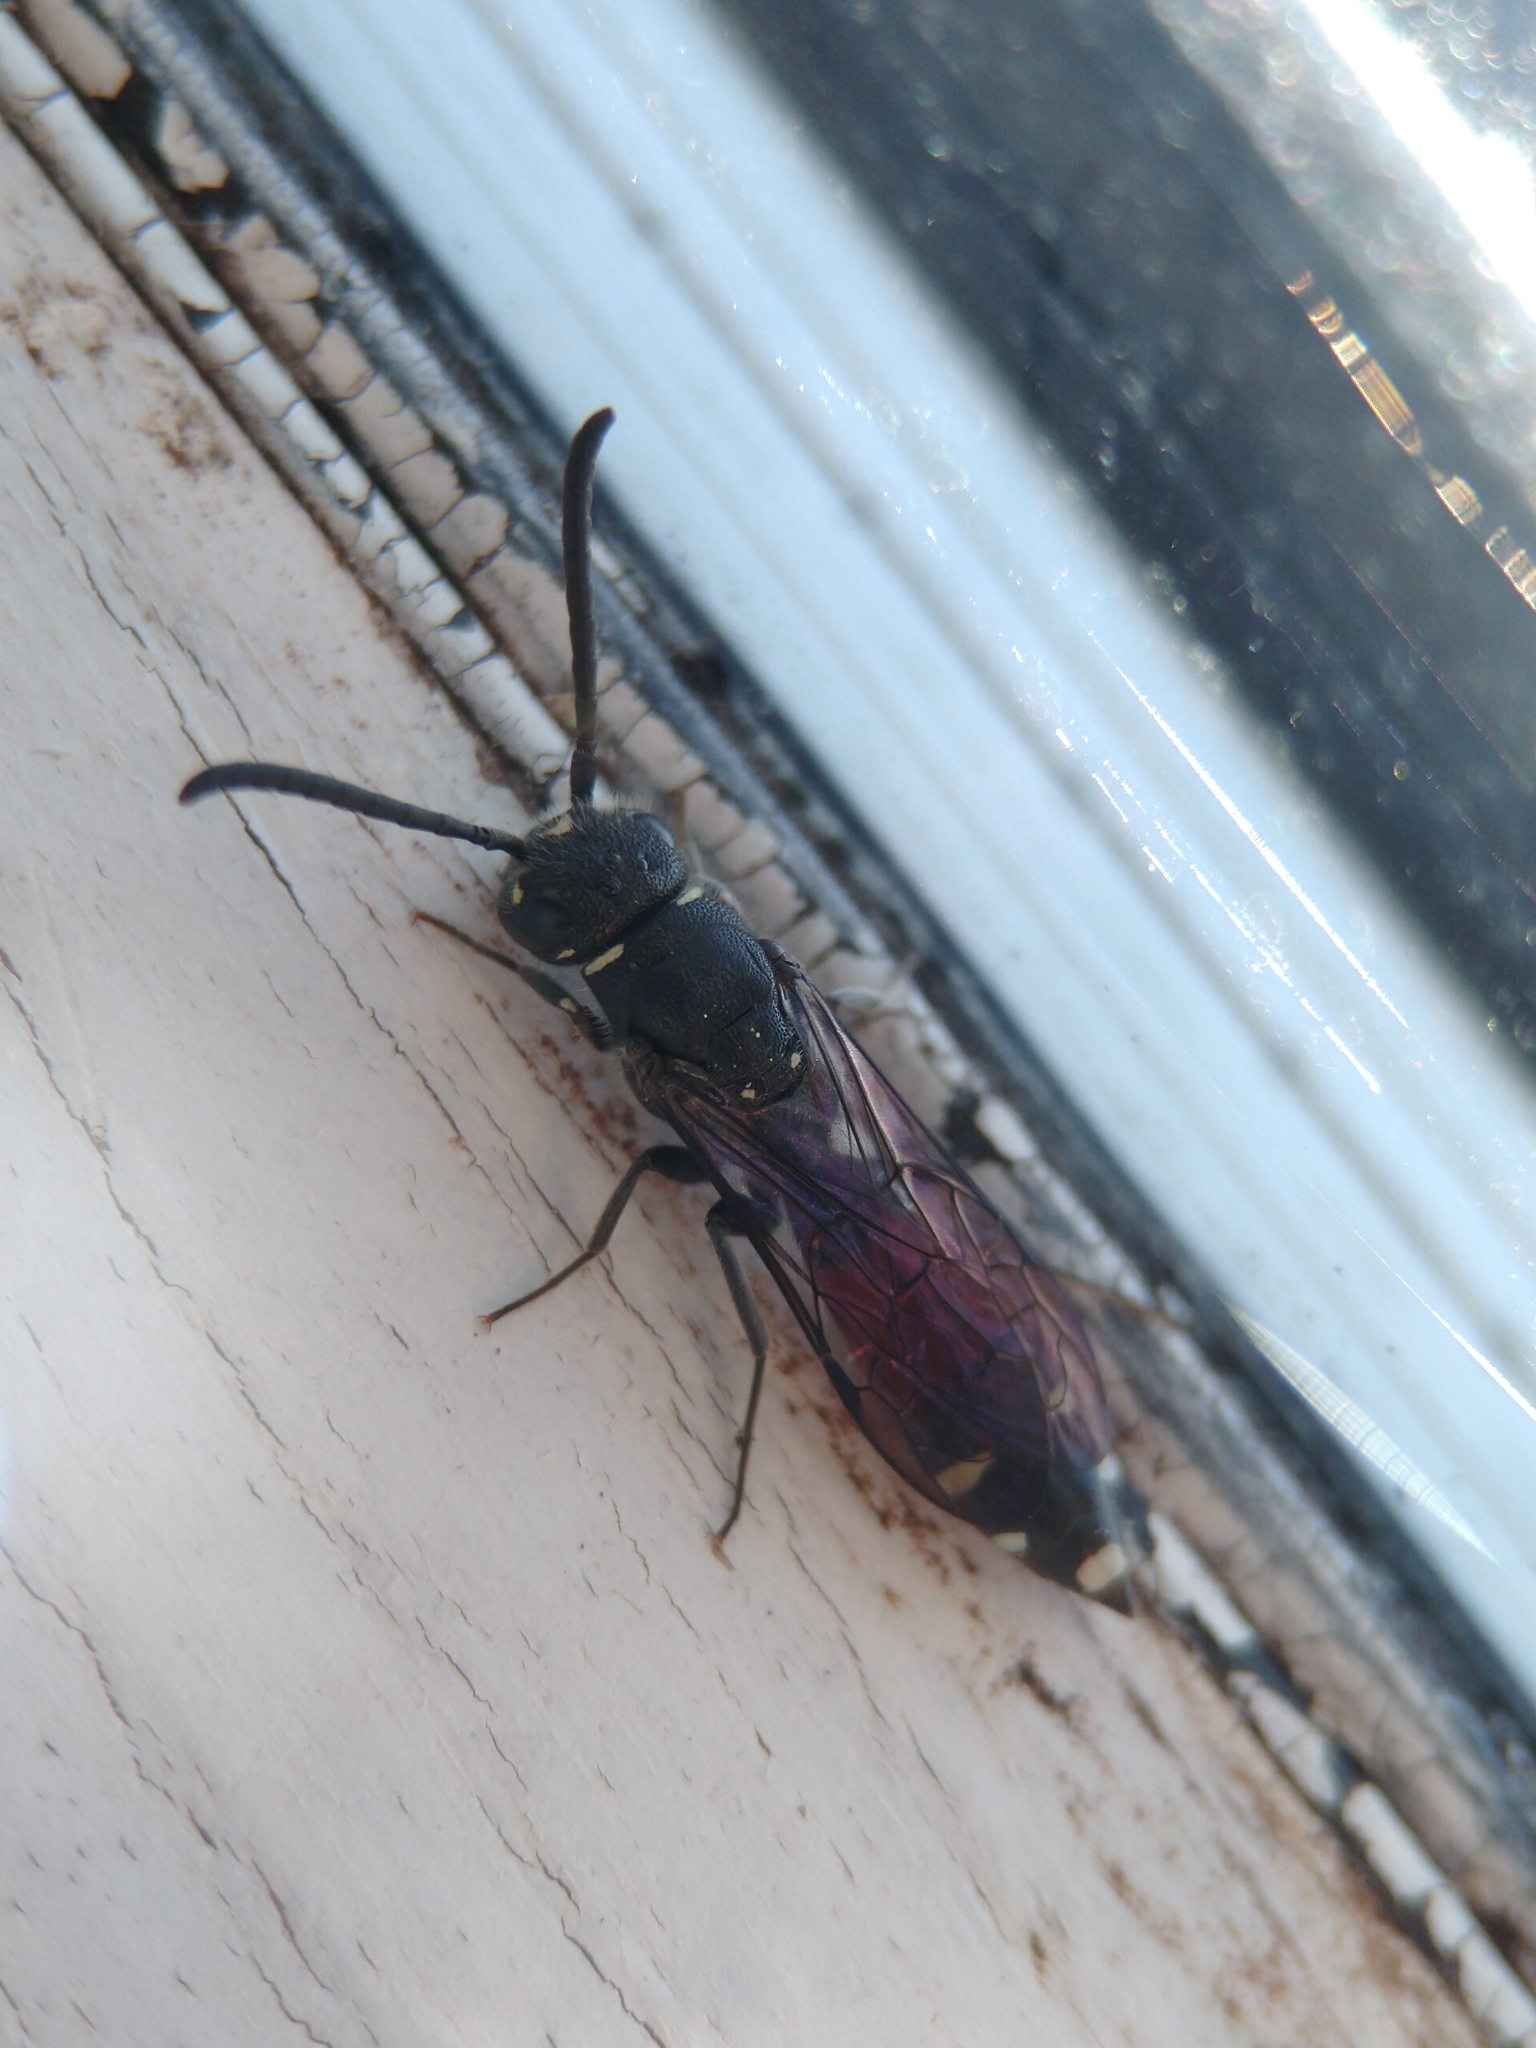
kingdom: Animalia
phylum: Arthropoda
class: Insecta
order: Hymenoptera
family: Sapygidae
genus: Sapyga
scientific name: Sapyga quinquepunctata
